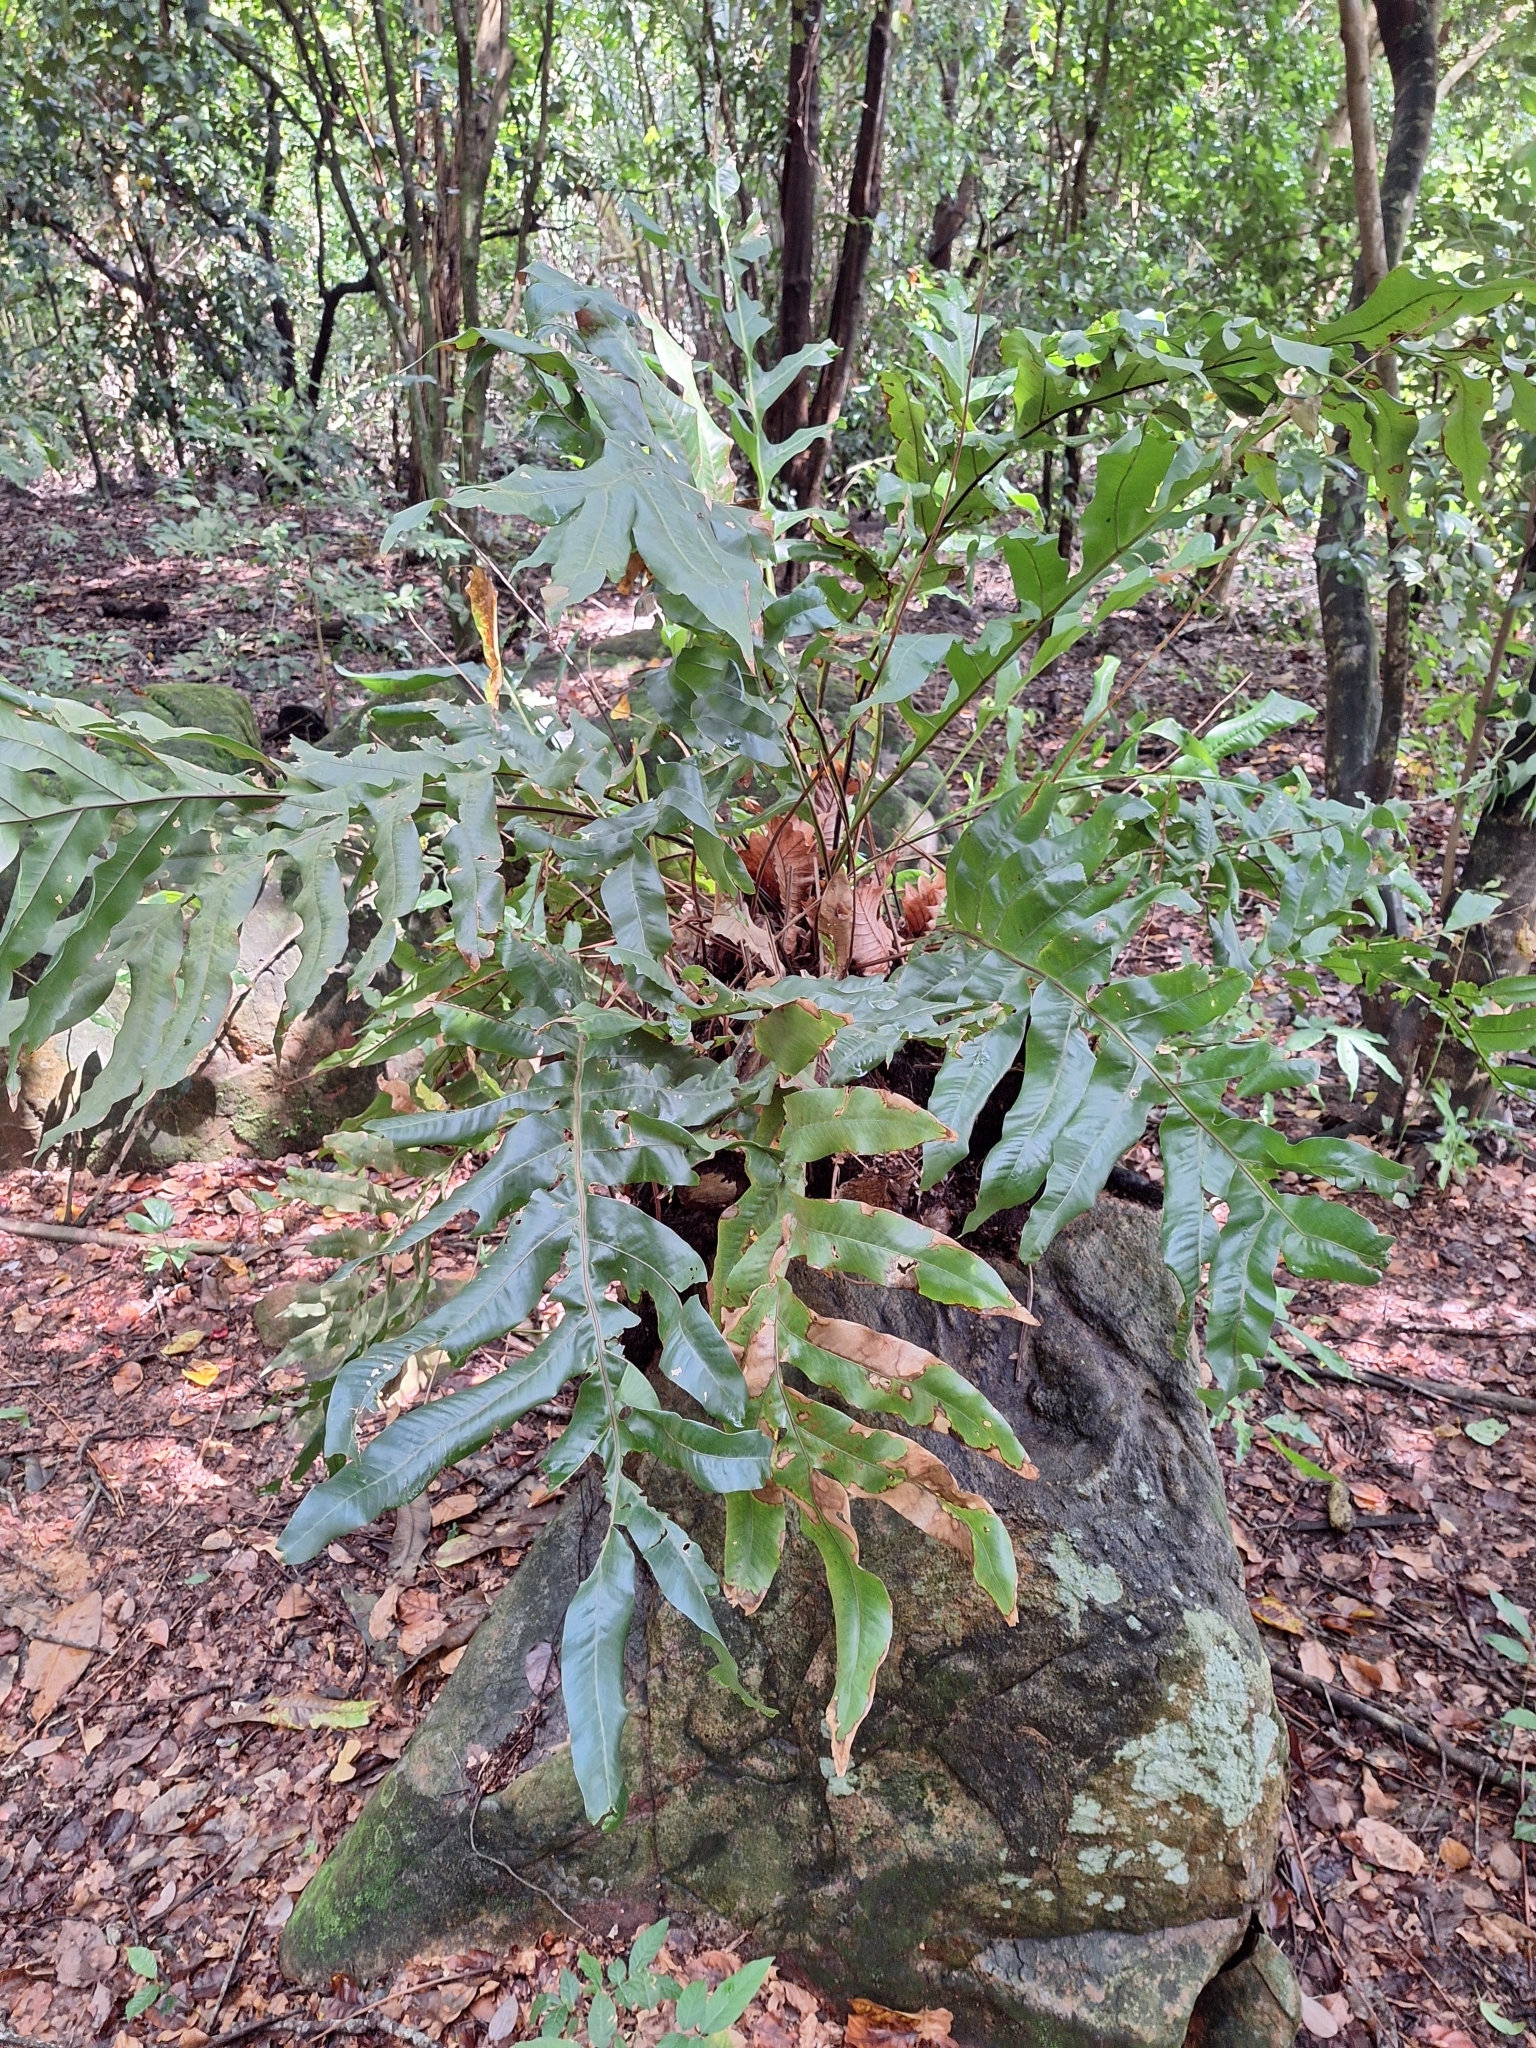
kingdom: Plantae
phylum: Tracheophyta
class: Polypodiopsida
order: Polypodiales
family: Polypodiaceae
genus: Drynaria
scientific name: Drynaria quercifolia
